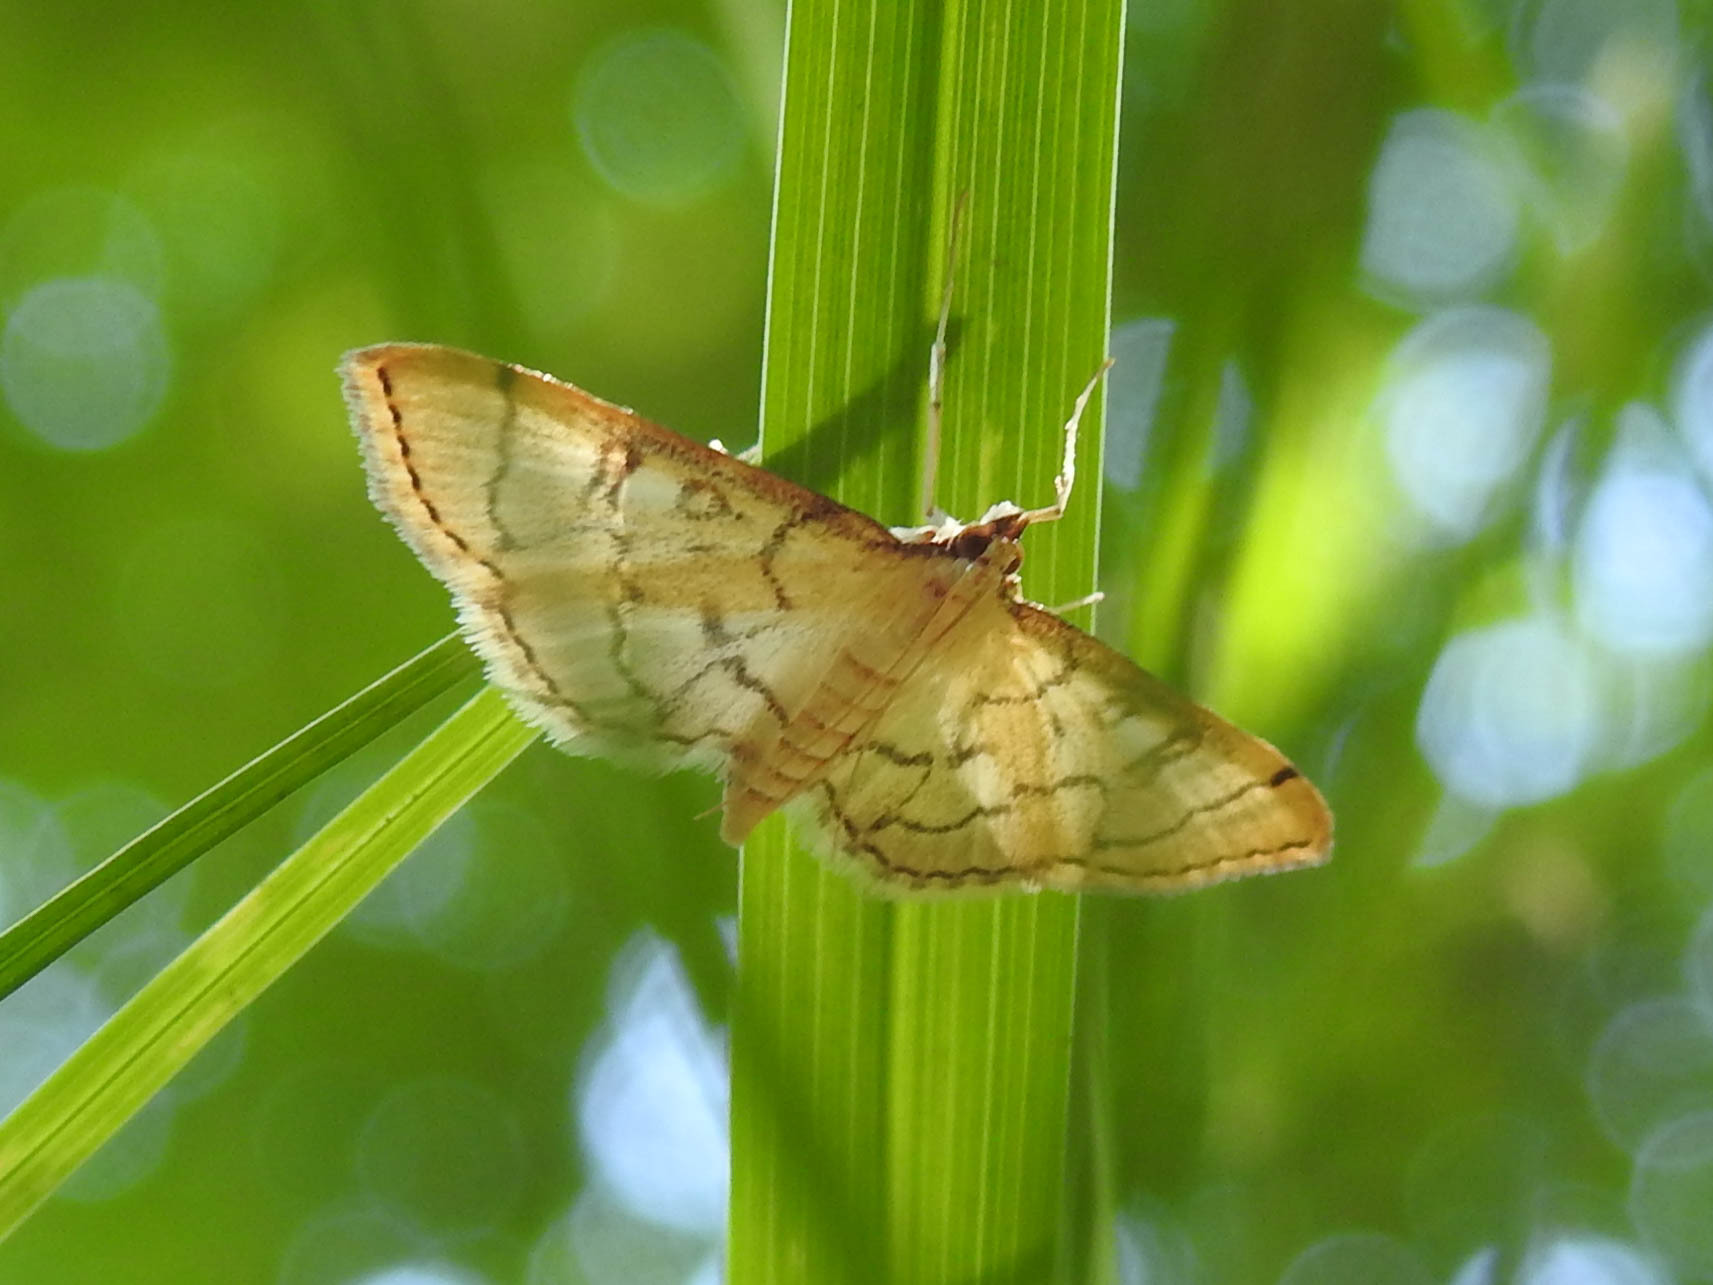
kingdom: Animalia
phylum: Arthropoda
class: Insecta
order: Lepidoptera
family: Crambidae
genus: Lamprosema
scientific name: Lamprosema Blepharomastix ranalis
